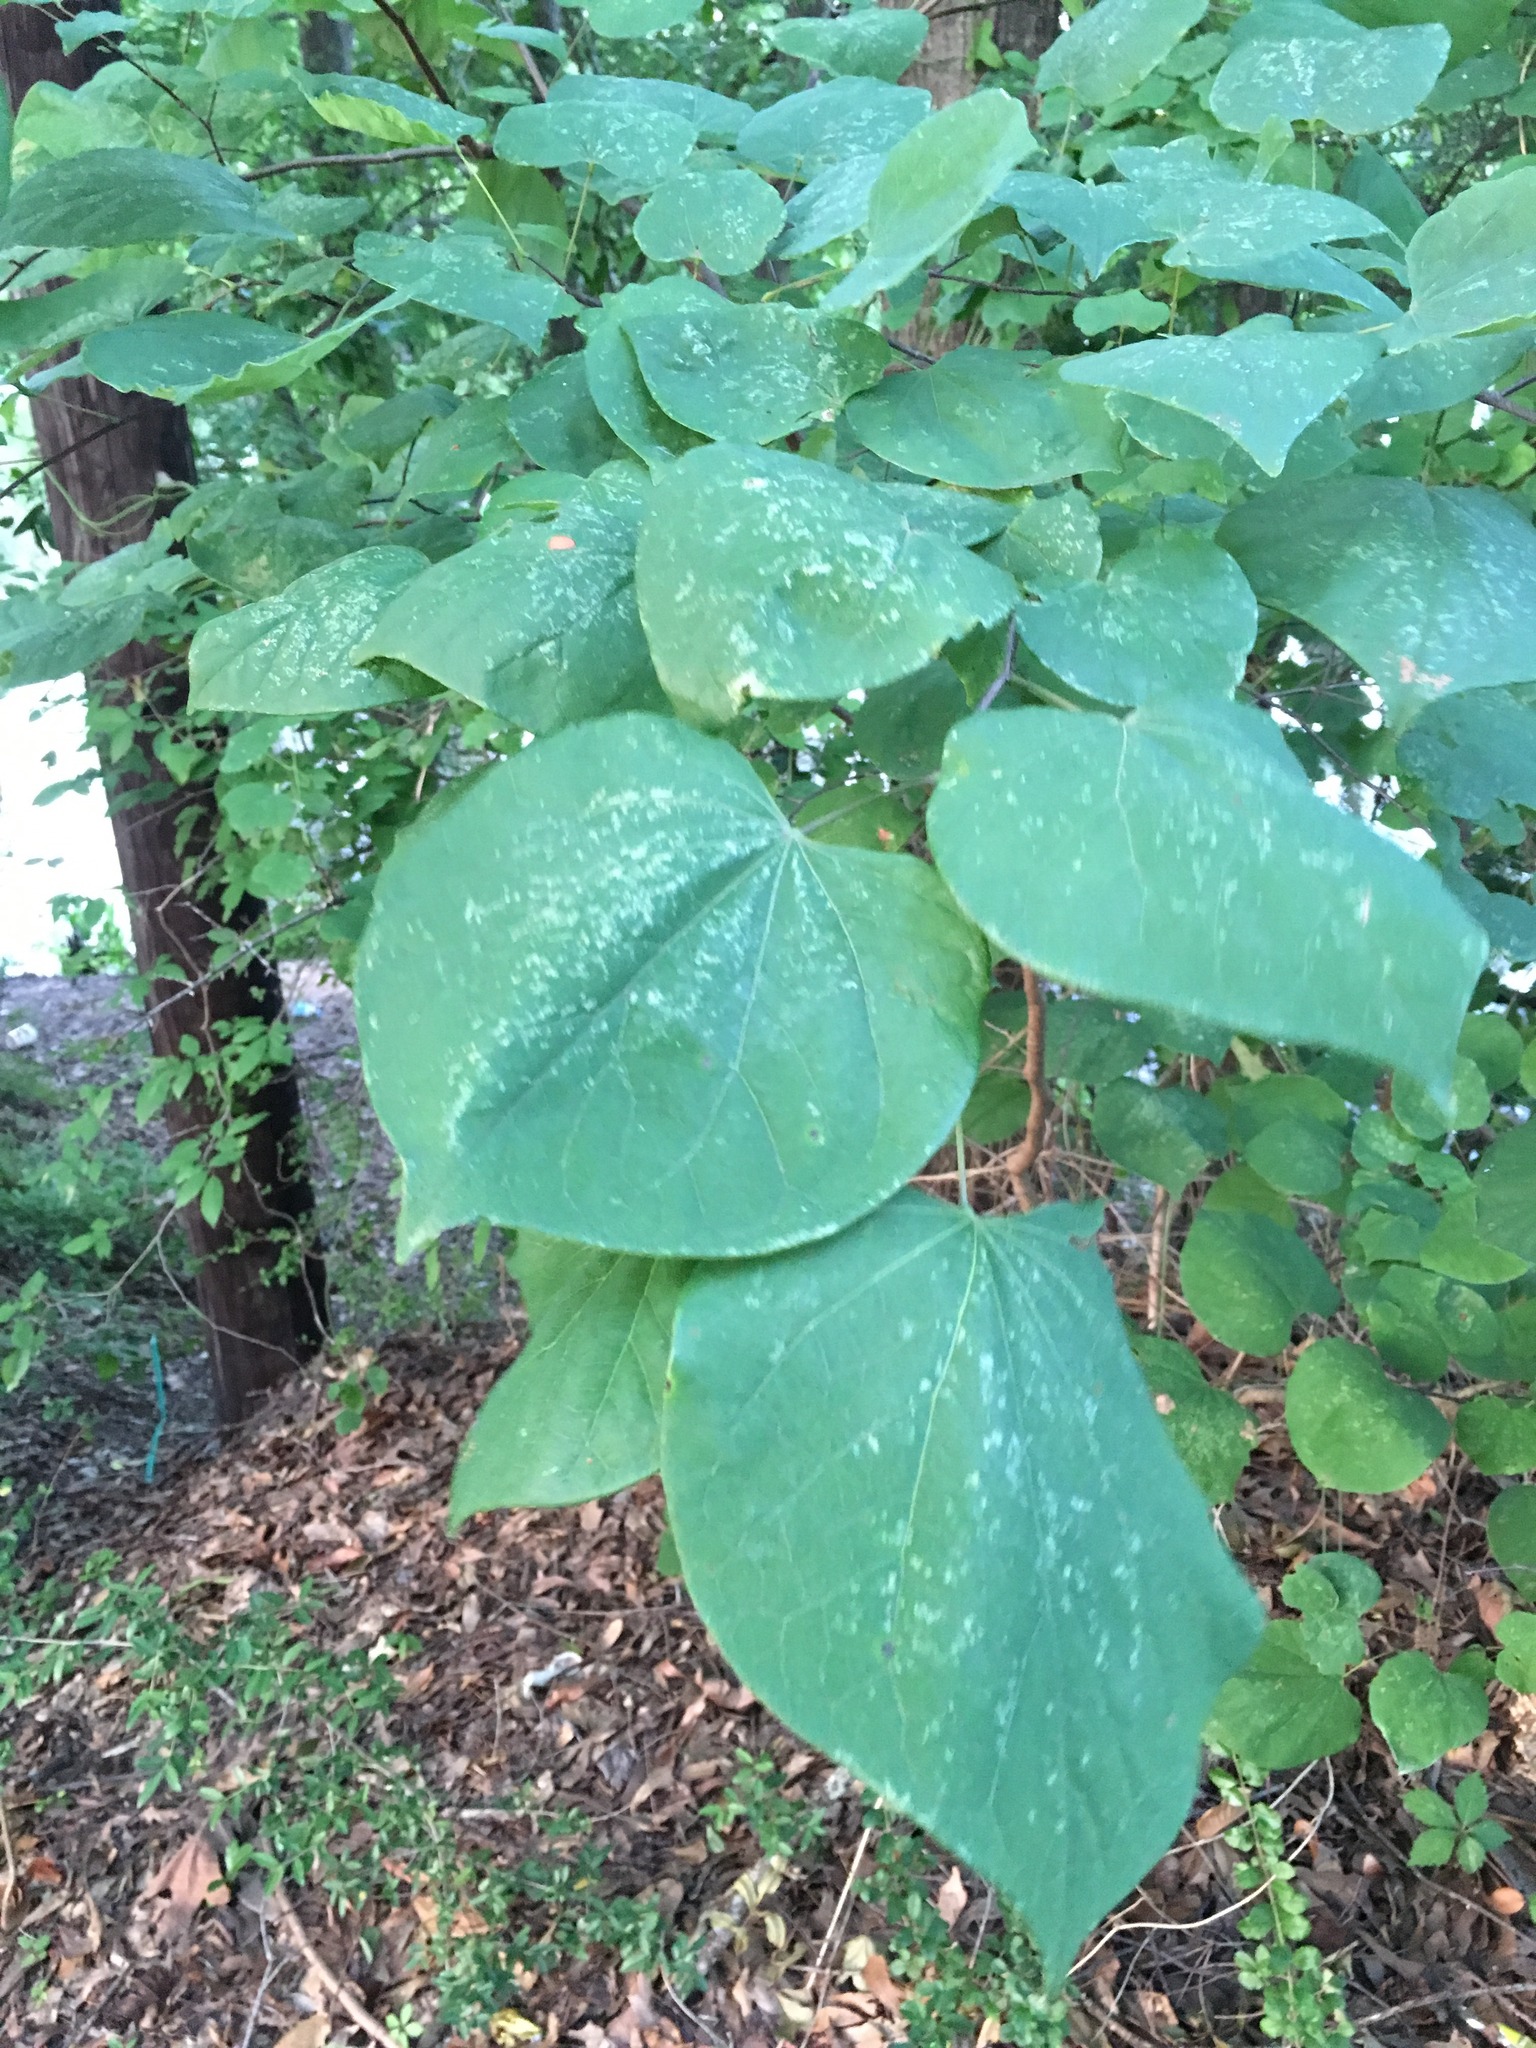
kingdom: Plantae
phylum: Tracheophyta
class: Magnoliopsida
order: Fabales
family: Fabaceae
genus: Cercis
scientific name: Cercis canadensis
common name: Eastern redbud
